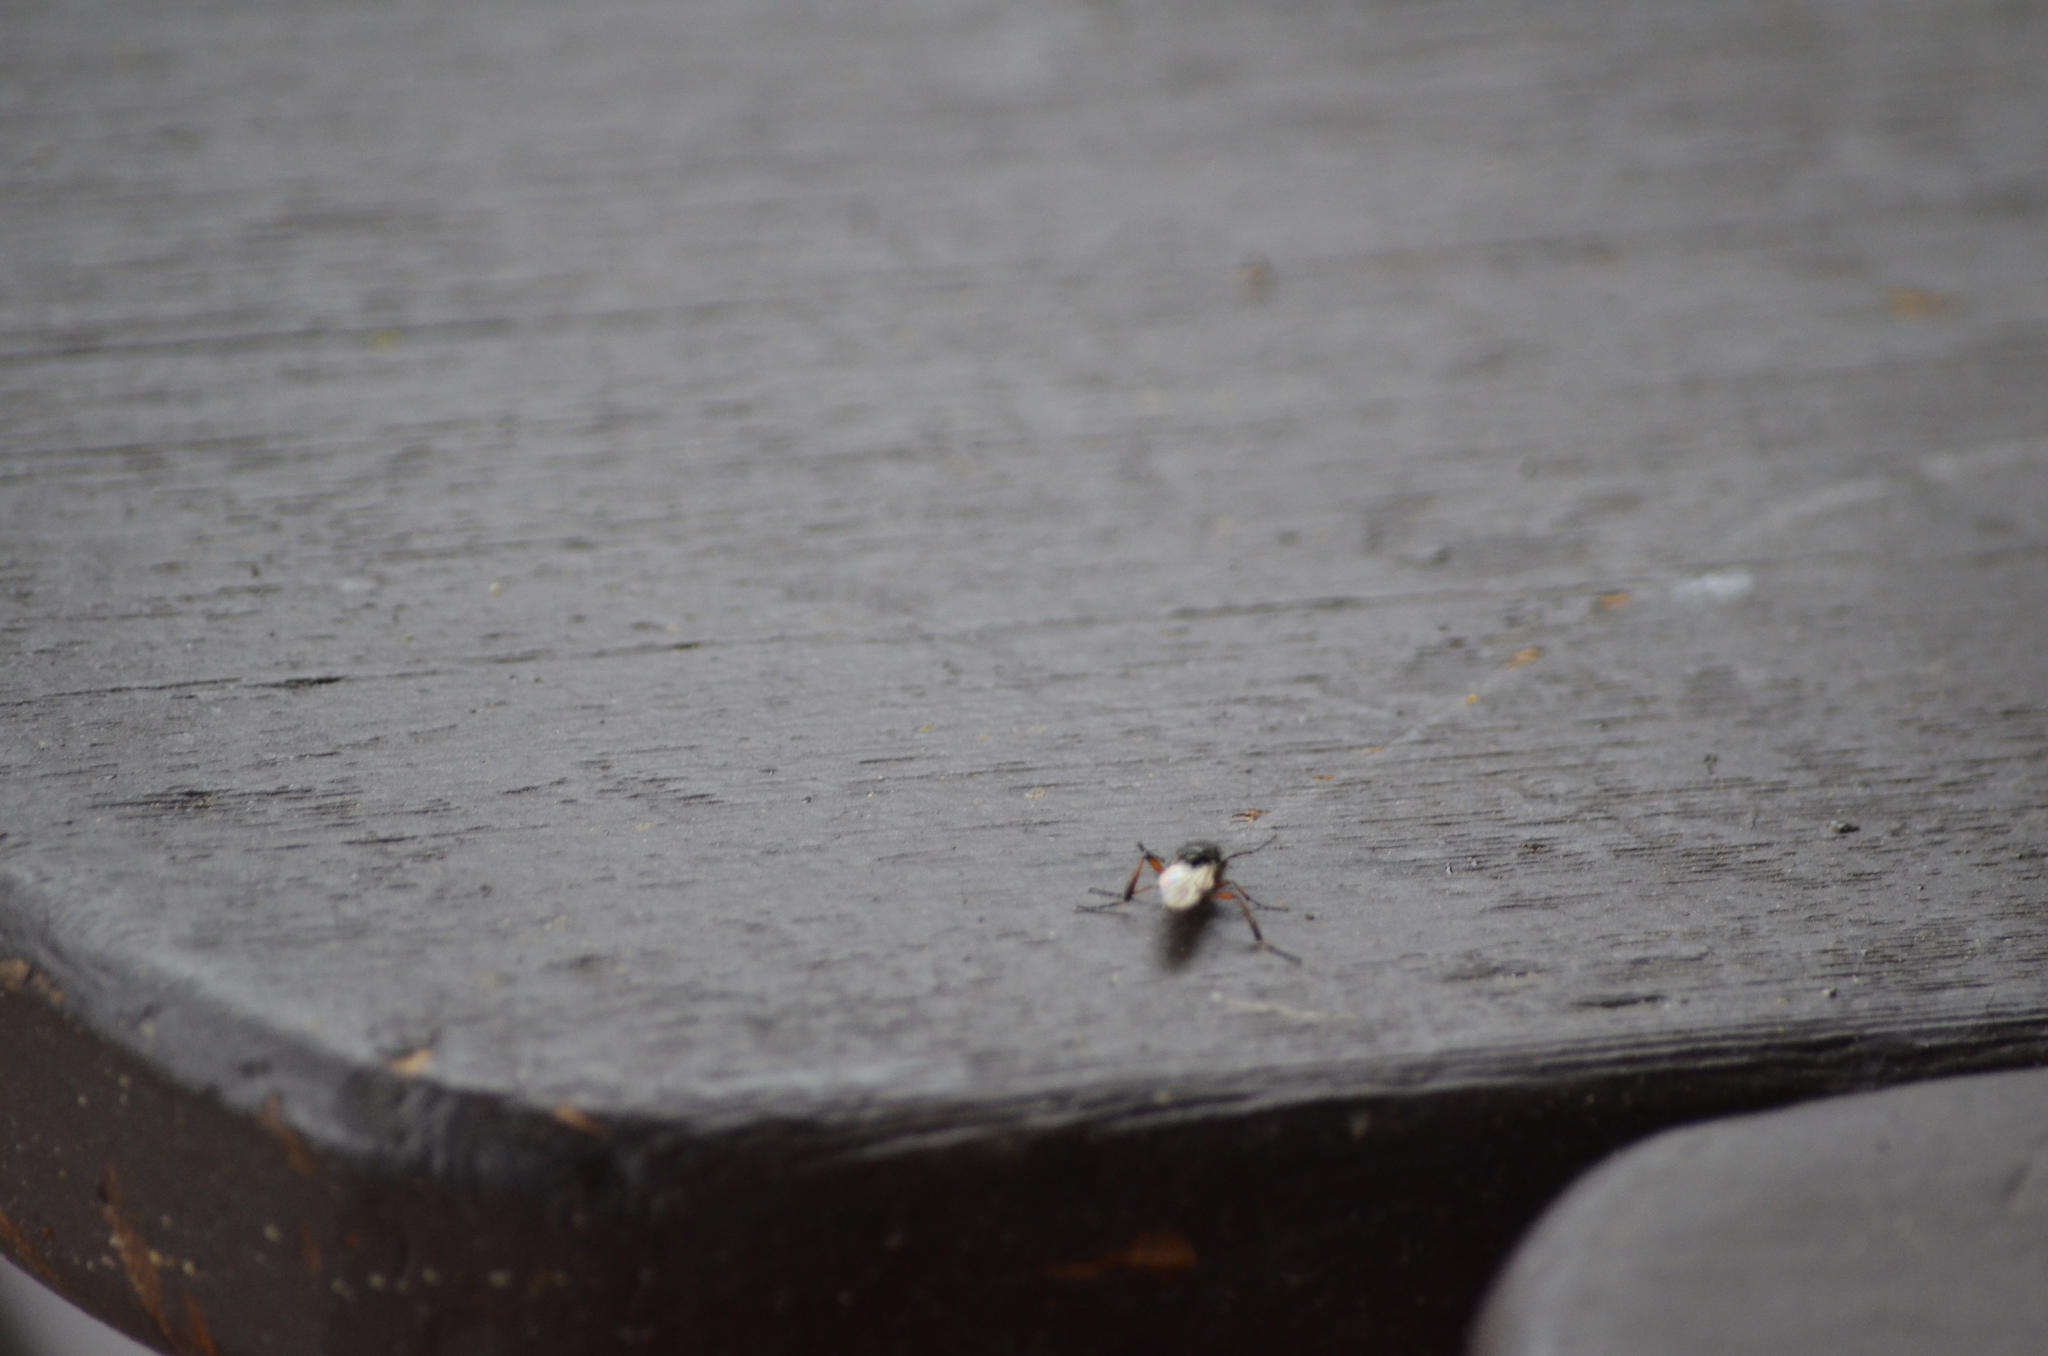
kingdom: Animalia
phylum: Arthropoda
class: Insecta
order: Diptera
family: Bibionidae
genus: Bibio
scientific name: Bibio
